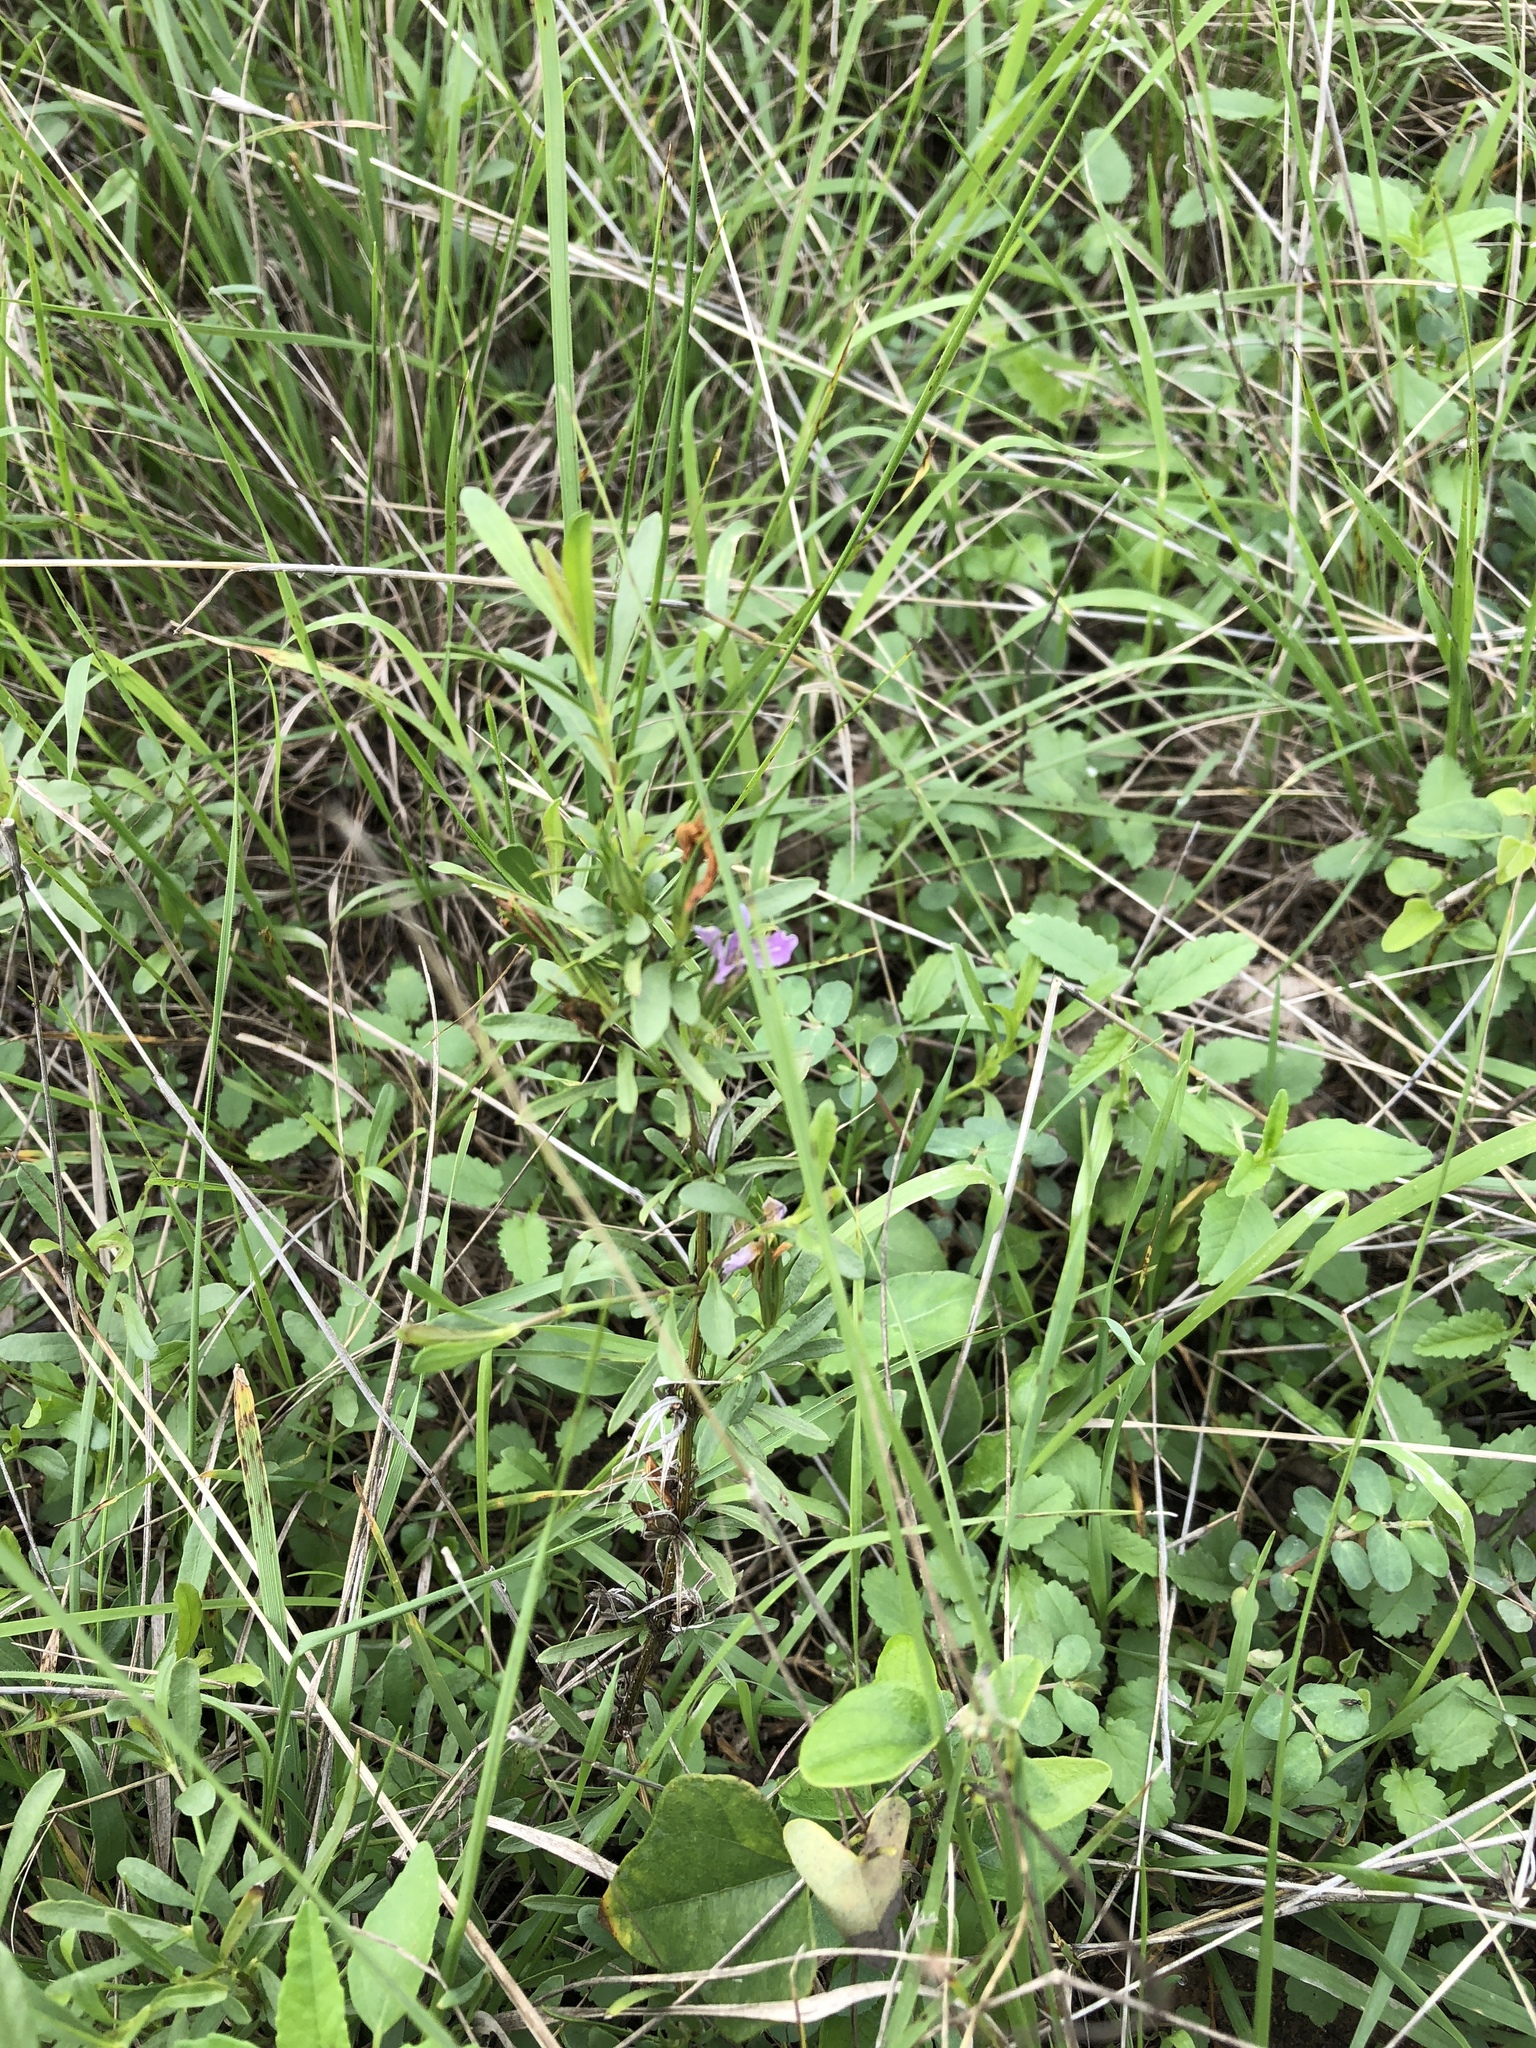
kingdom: Plantae
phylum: Tracheophyta
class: Magnoliopsida
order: Lamiales
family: Acanthaceae
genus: Dyschoriste
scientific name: Dyschoriste linearis
